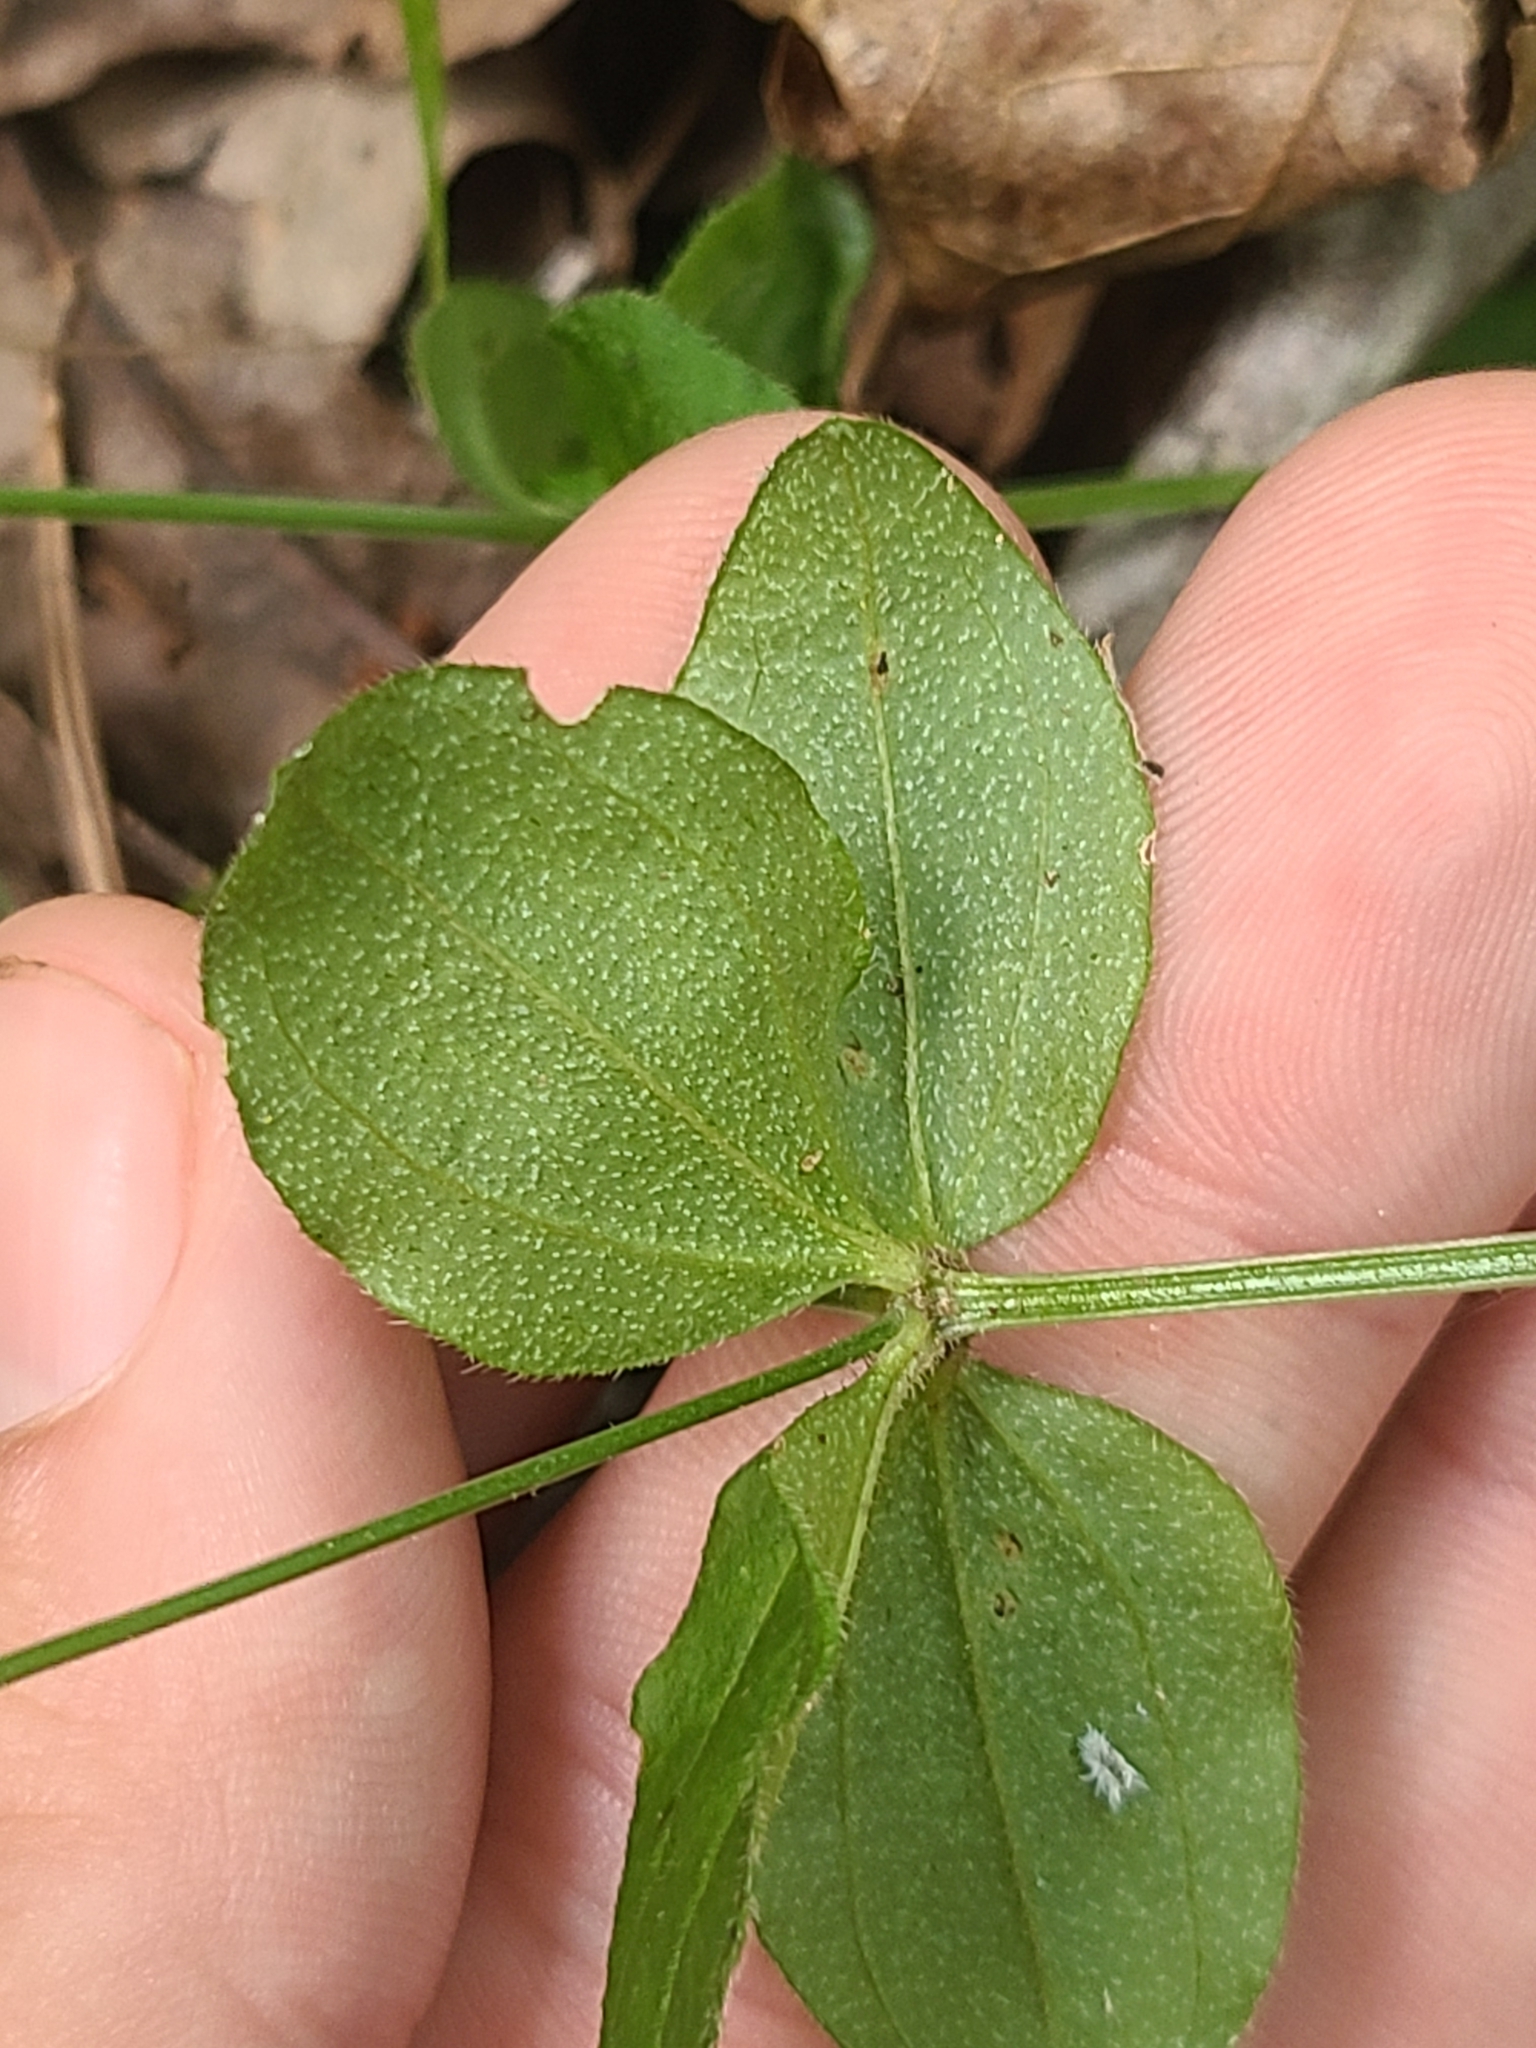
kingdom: Plantae
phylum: Tracheophyta
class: Magnoliopsida
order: Gentianales
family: Rubiaceae
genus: Galium
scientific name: Galium circaezans
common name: Forest bedstraw
